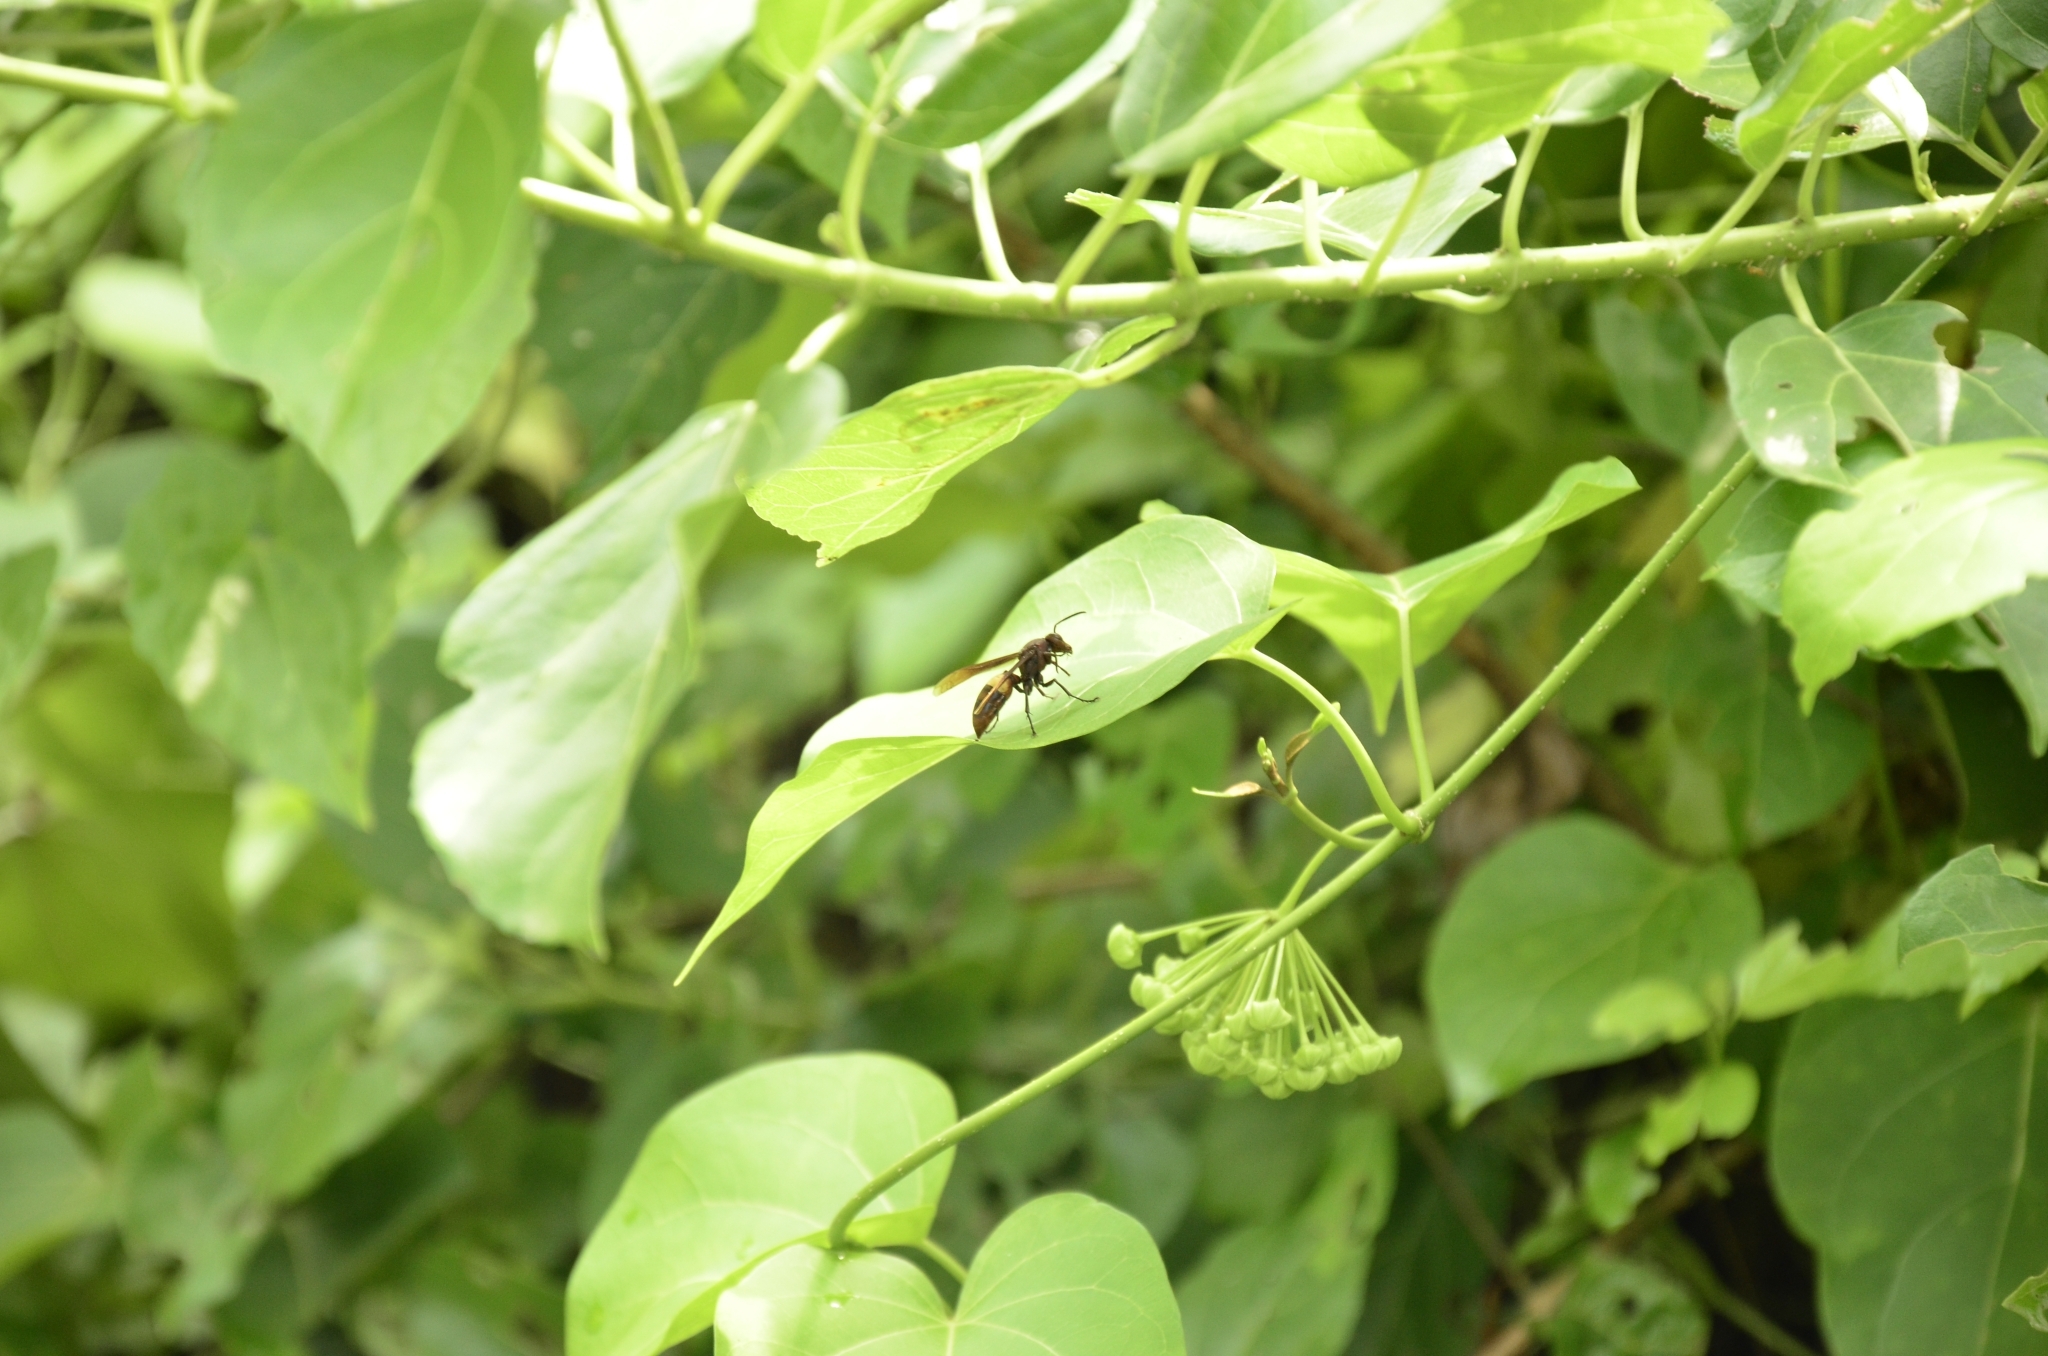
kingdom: Animalia
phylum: Arthropoda
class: Insecta
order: Hymenoptera
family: Eumenidae
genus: Polistes
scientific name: Polistes sagittarius
